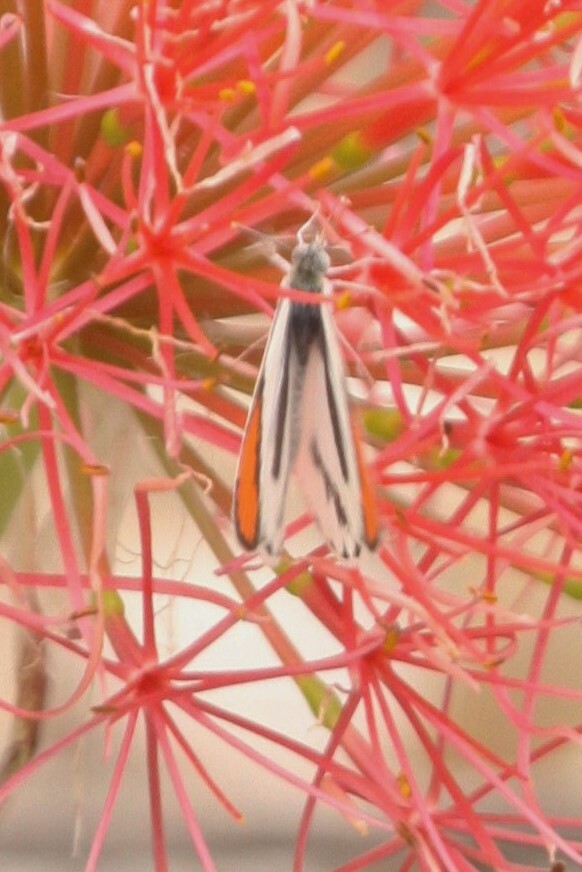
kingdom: Animalia
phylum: Arthropoda
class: Insecta
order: Lepidoptera
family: Pieridae
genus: Colotis
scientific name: Colotis euippe
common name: Round-winged orange tip
